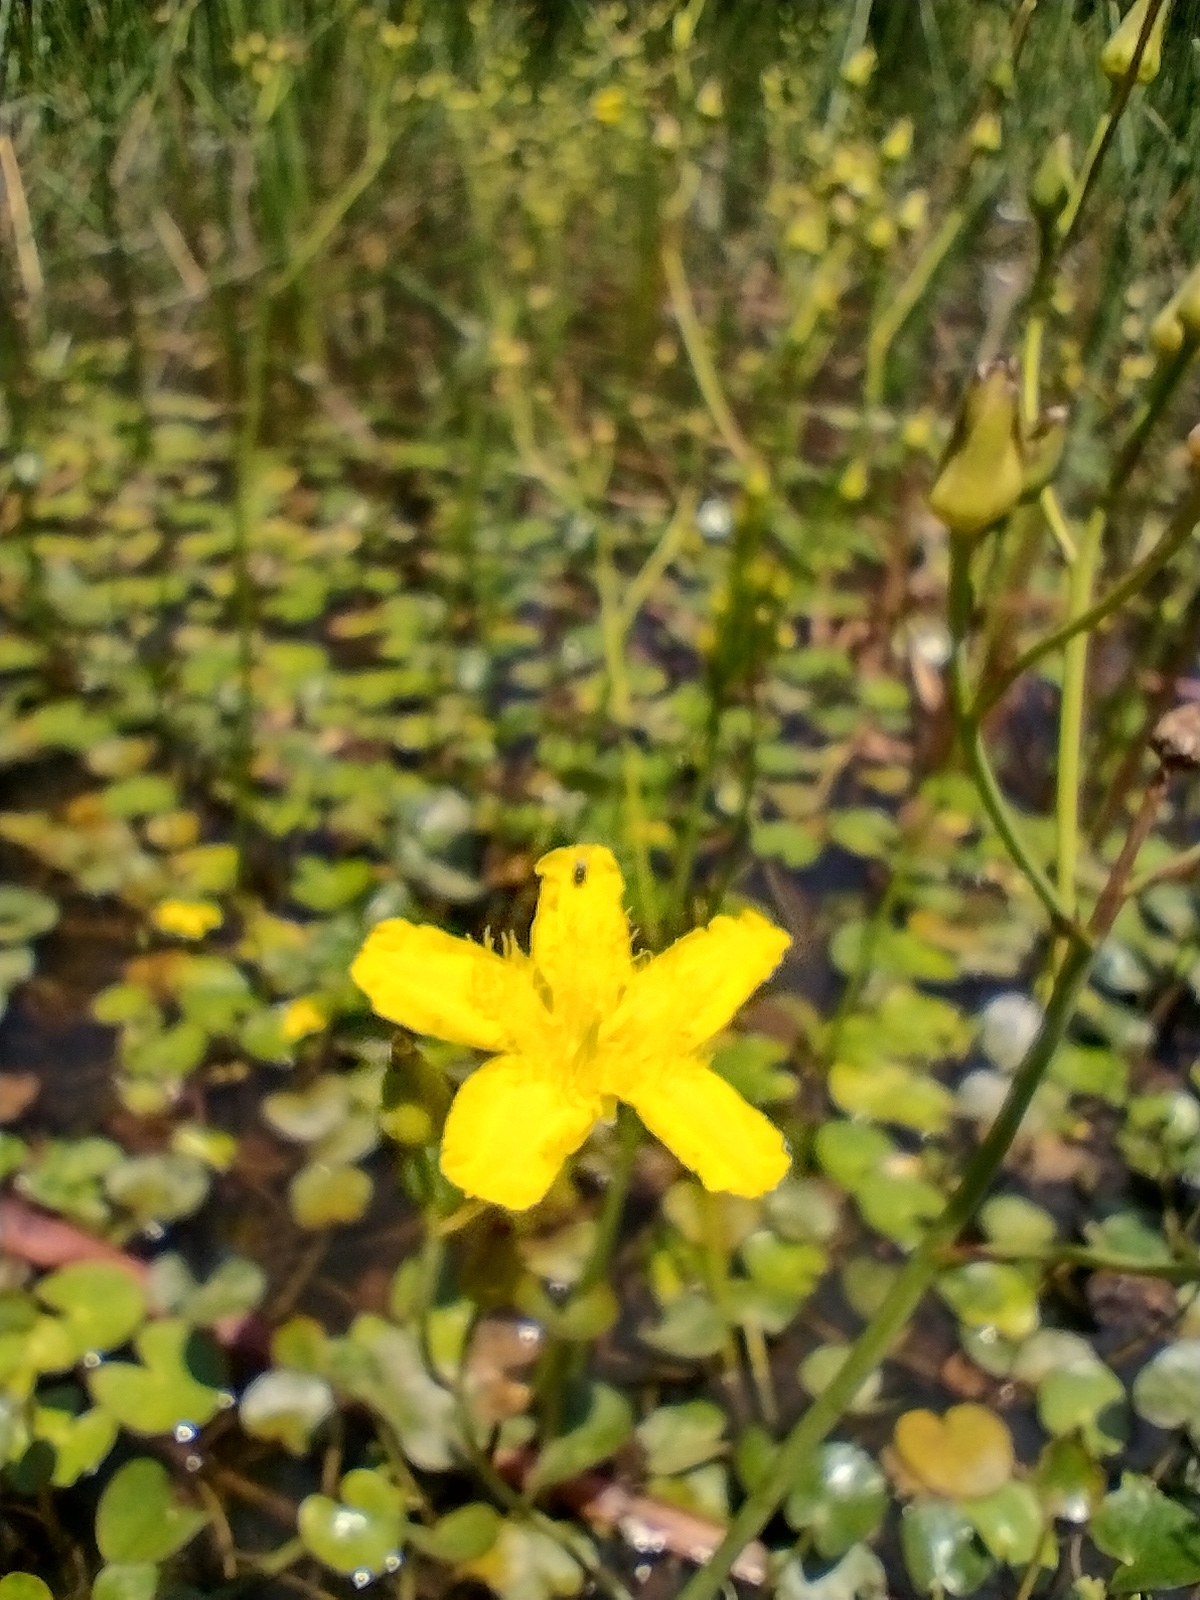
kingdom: Plantae
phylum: Tracheophyta
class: Magnoliopsida
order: Asterales
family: Menyanthaceae
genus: Ornduffia
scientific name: Ornduffia reniformis
